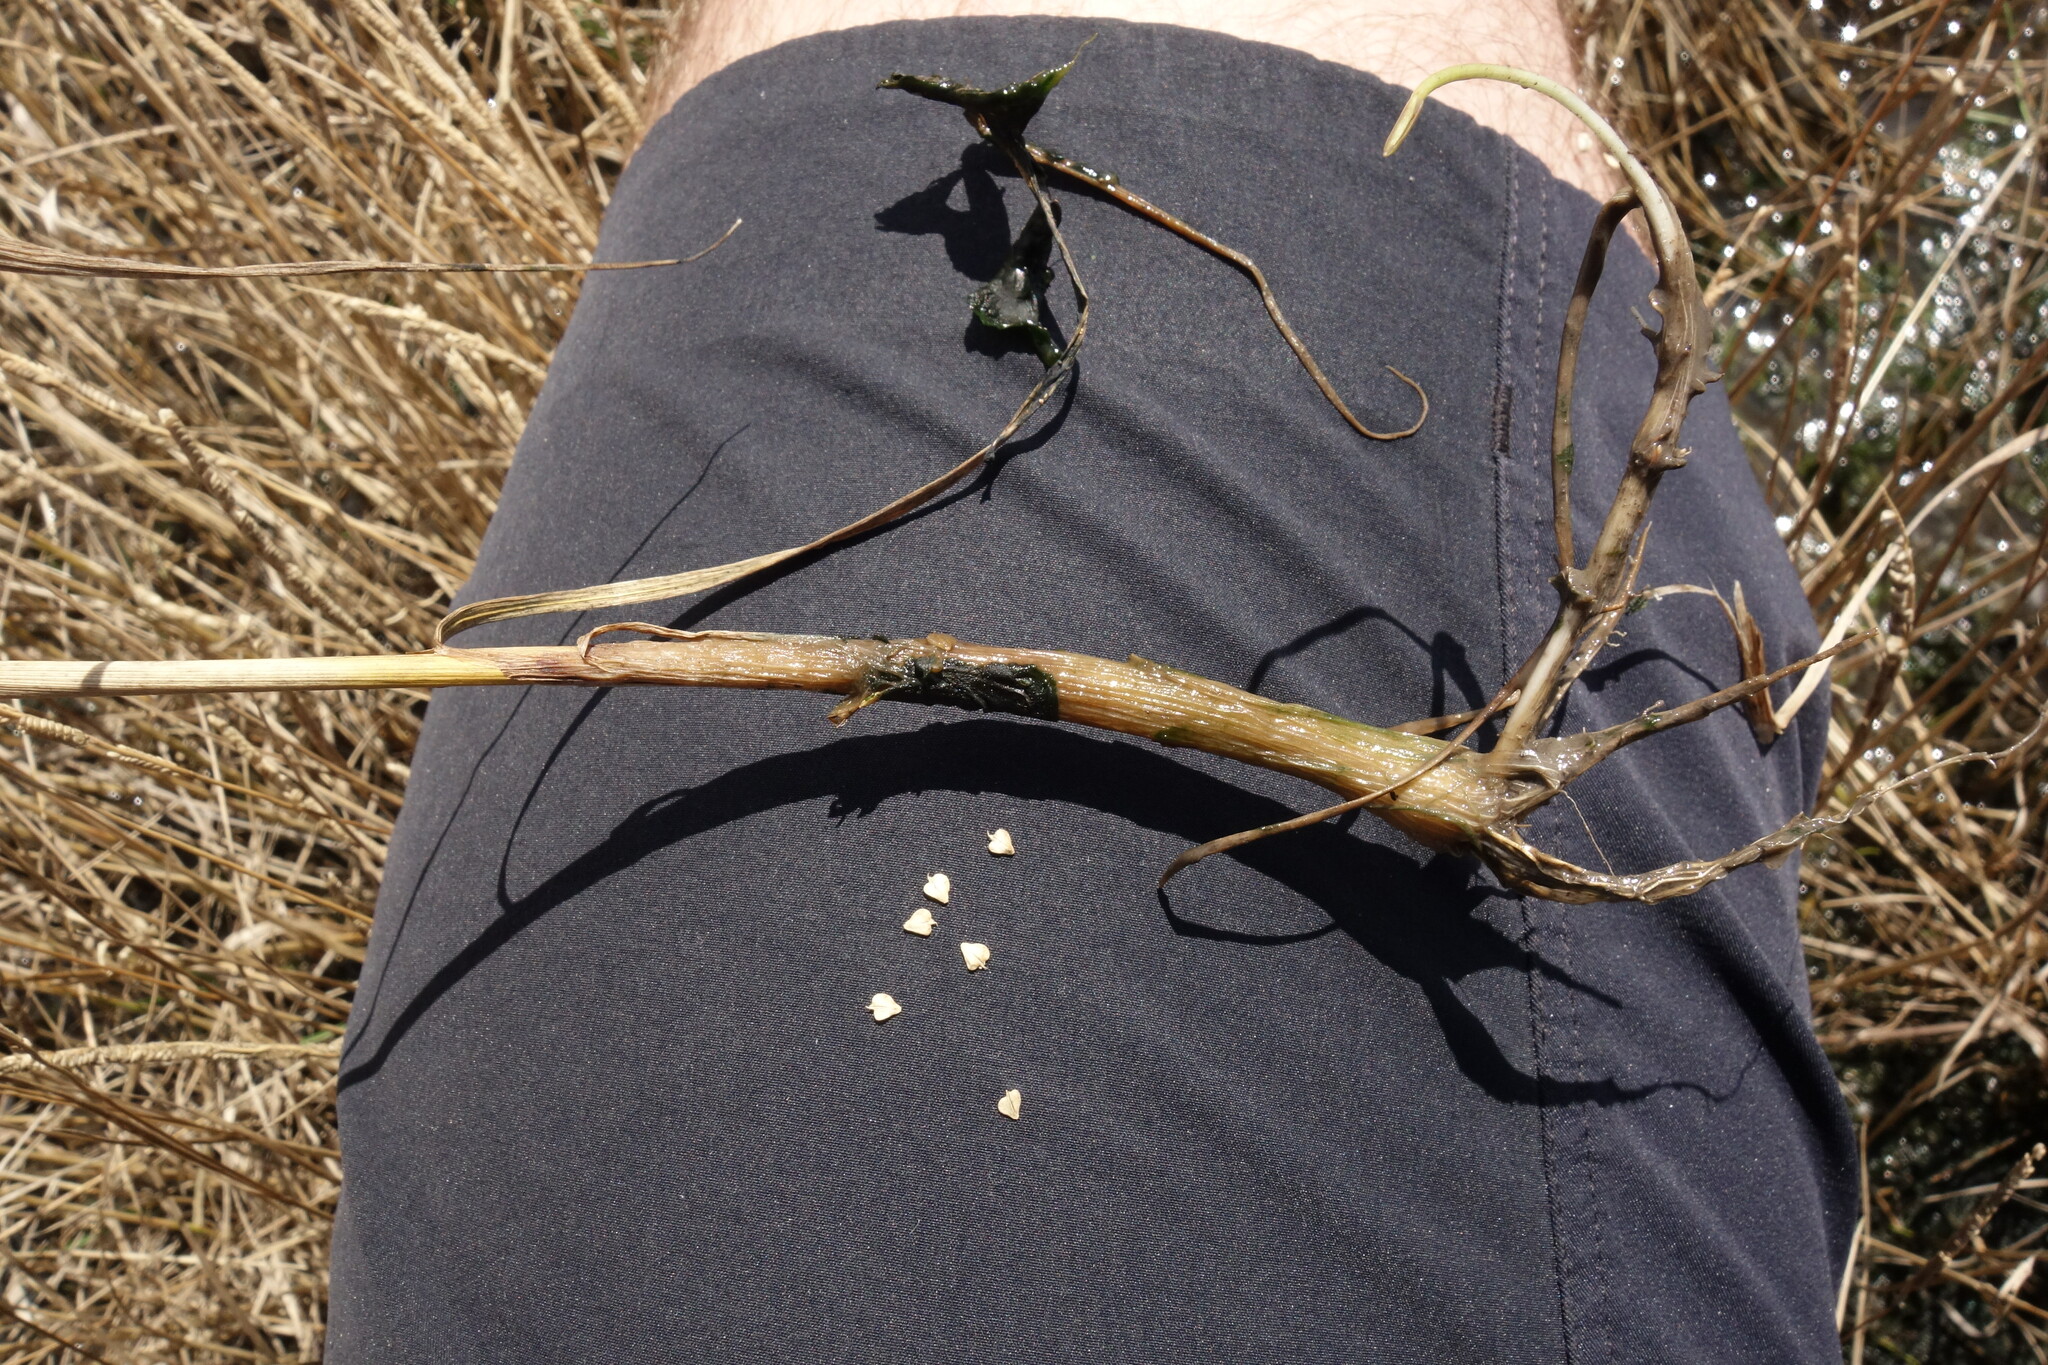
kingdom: Plantae
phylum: Tracheophyta
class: Liliopsida
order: Poales
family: Poaceae
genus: Beckmannia
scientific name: Beckmannia eruciformis
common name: European slough-grass
